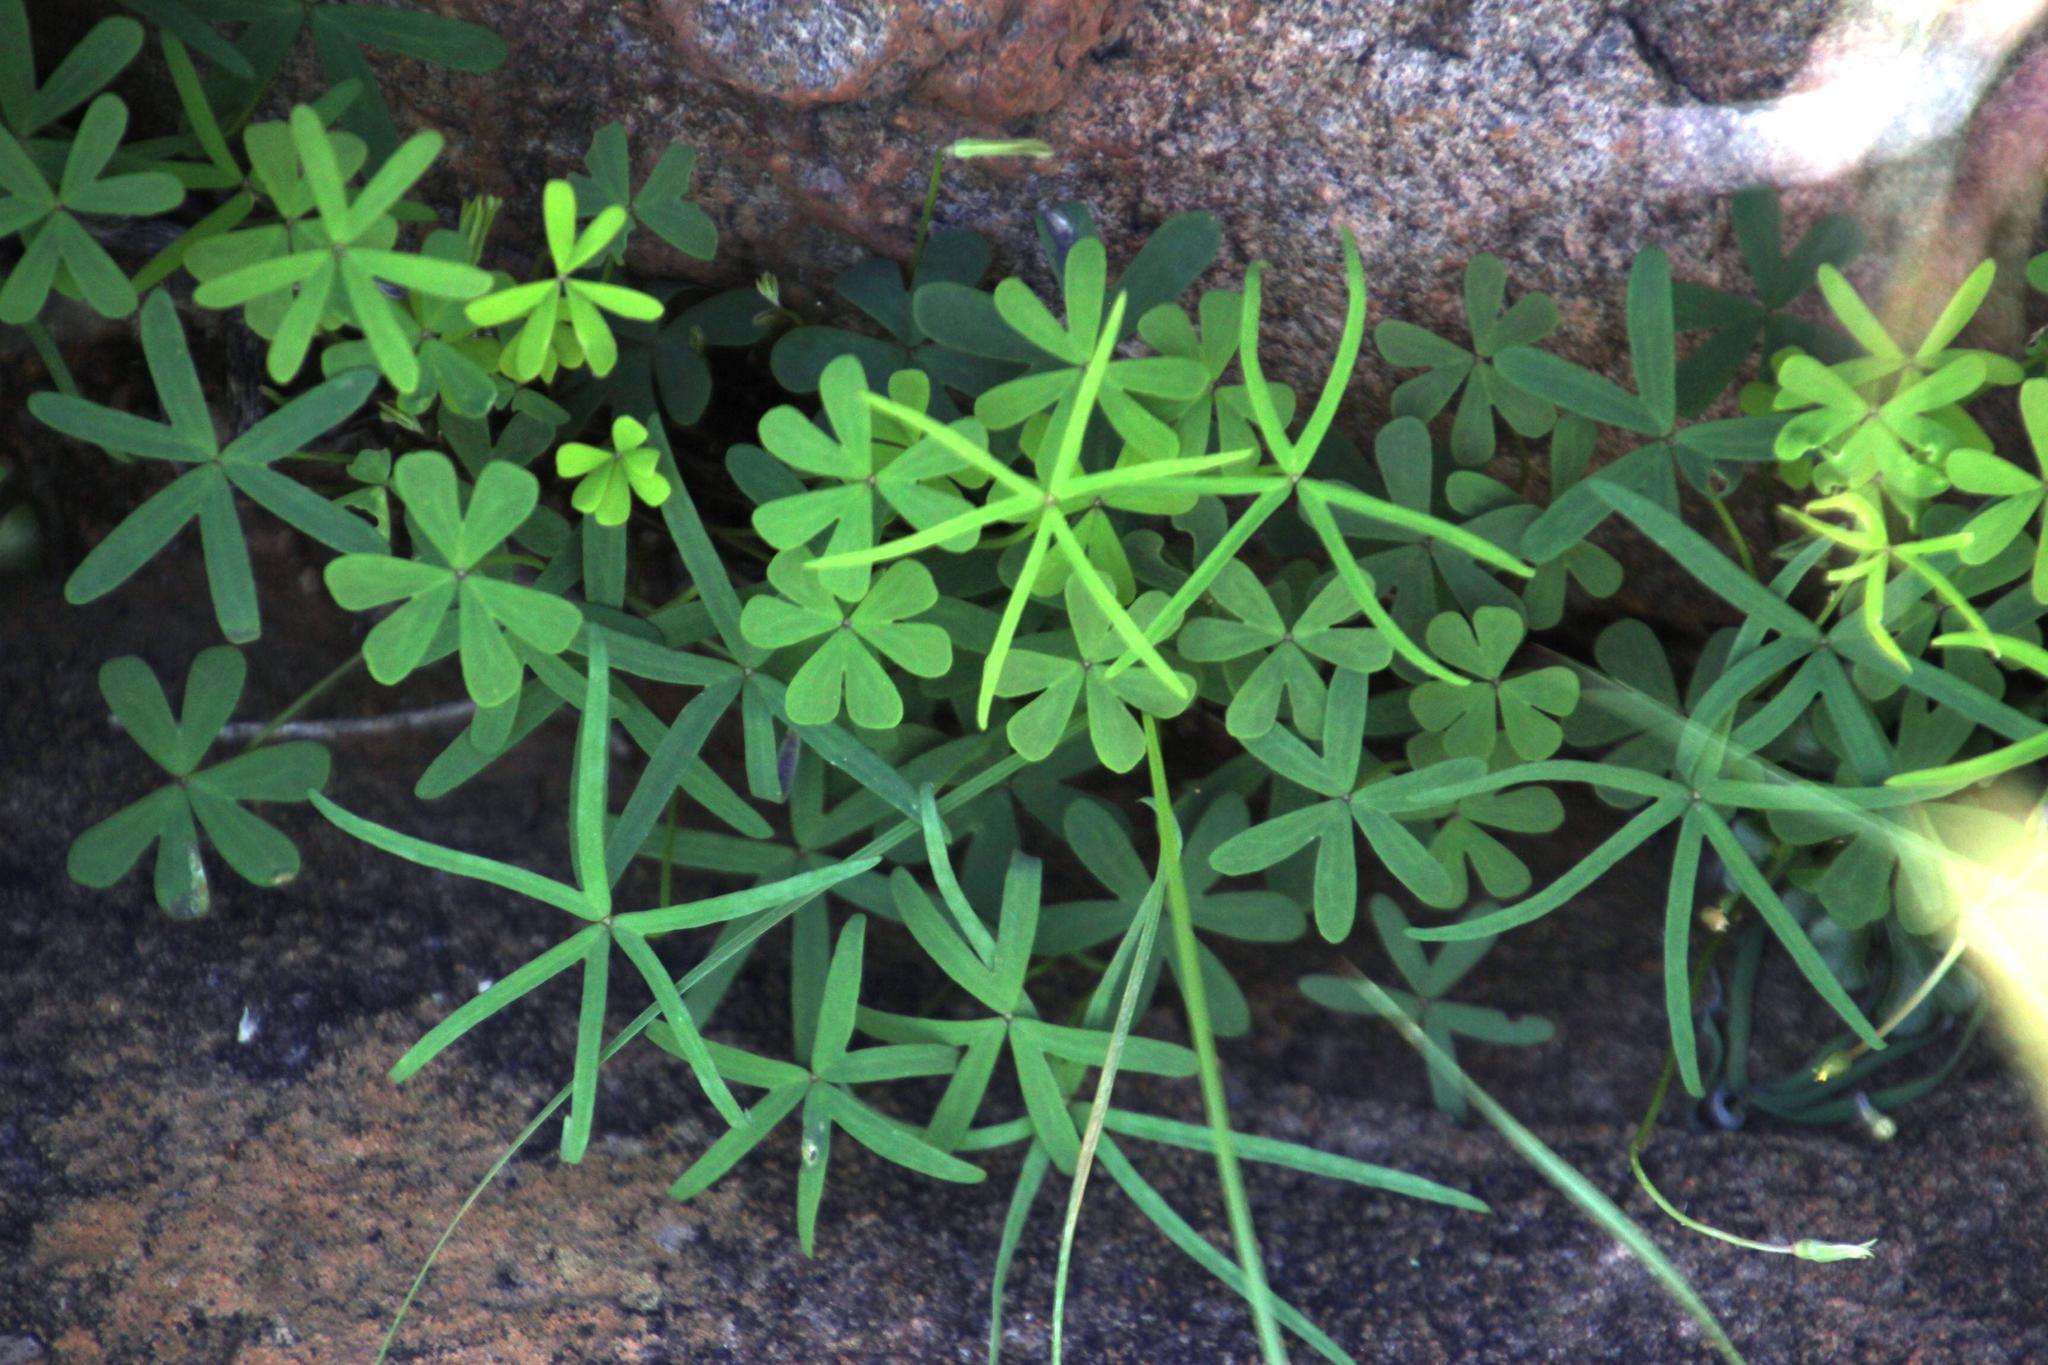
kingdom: Plantae
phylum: Tracheophyta
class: Magnoliopsida
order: Oxalidales
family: Oxalidaceae
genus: Oxalis
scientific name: Oxalis smithiana
